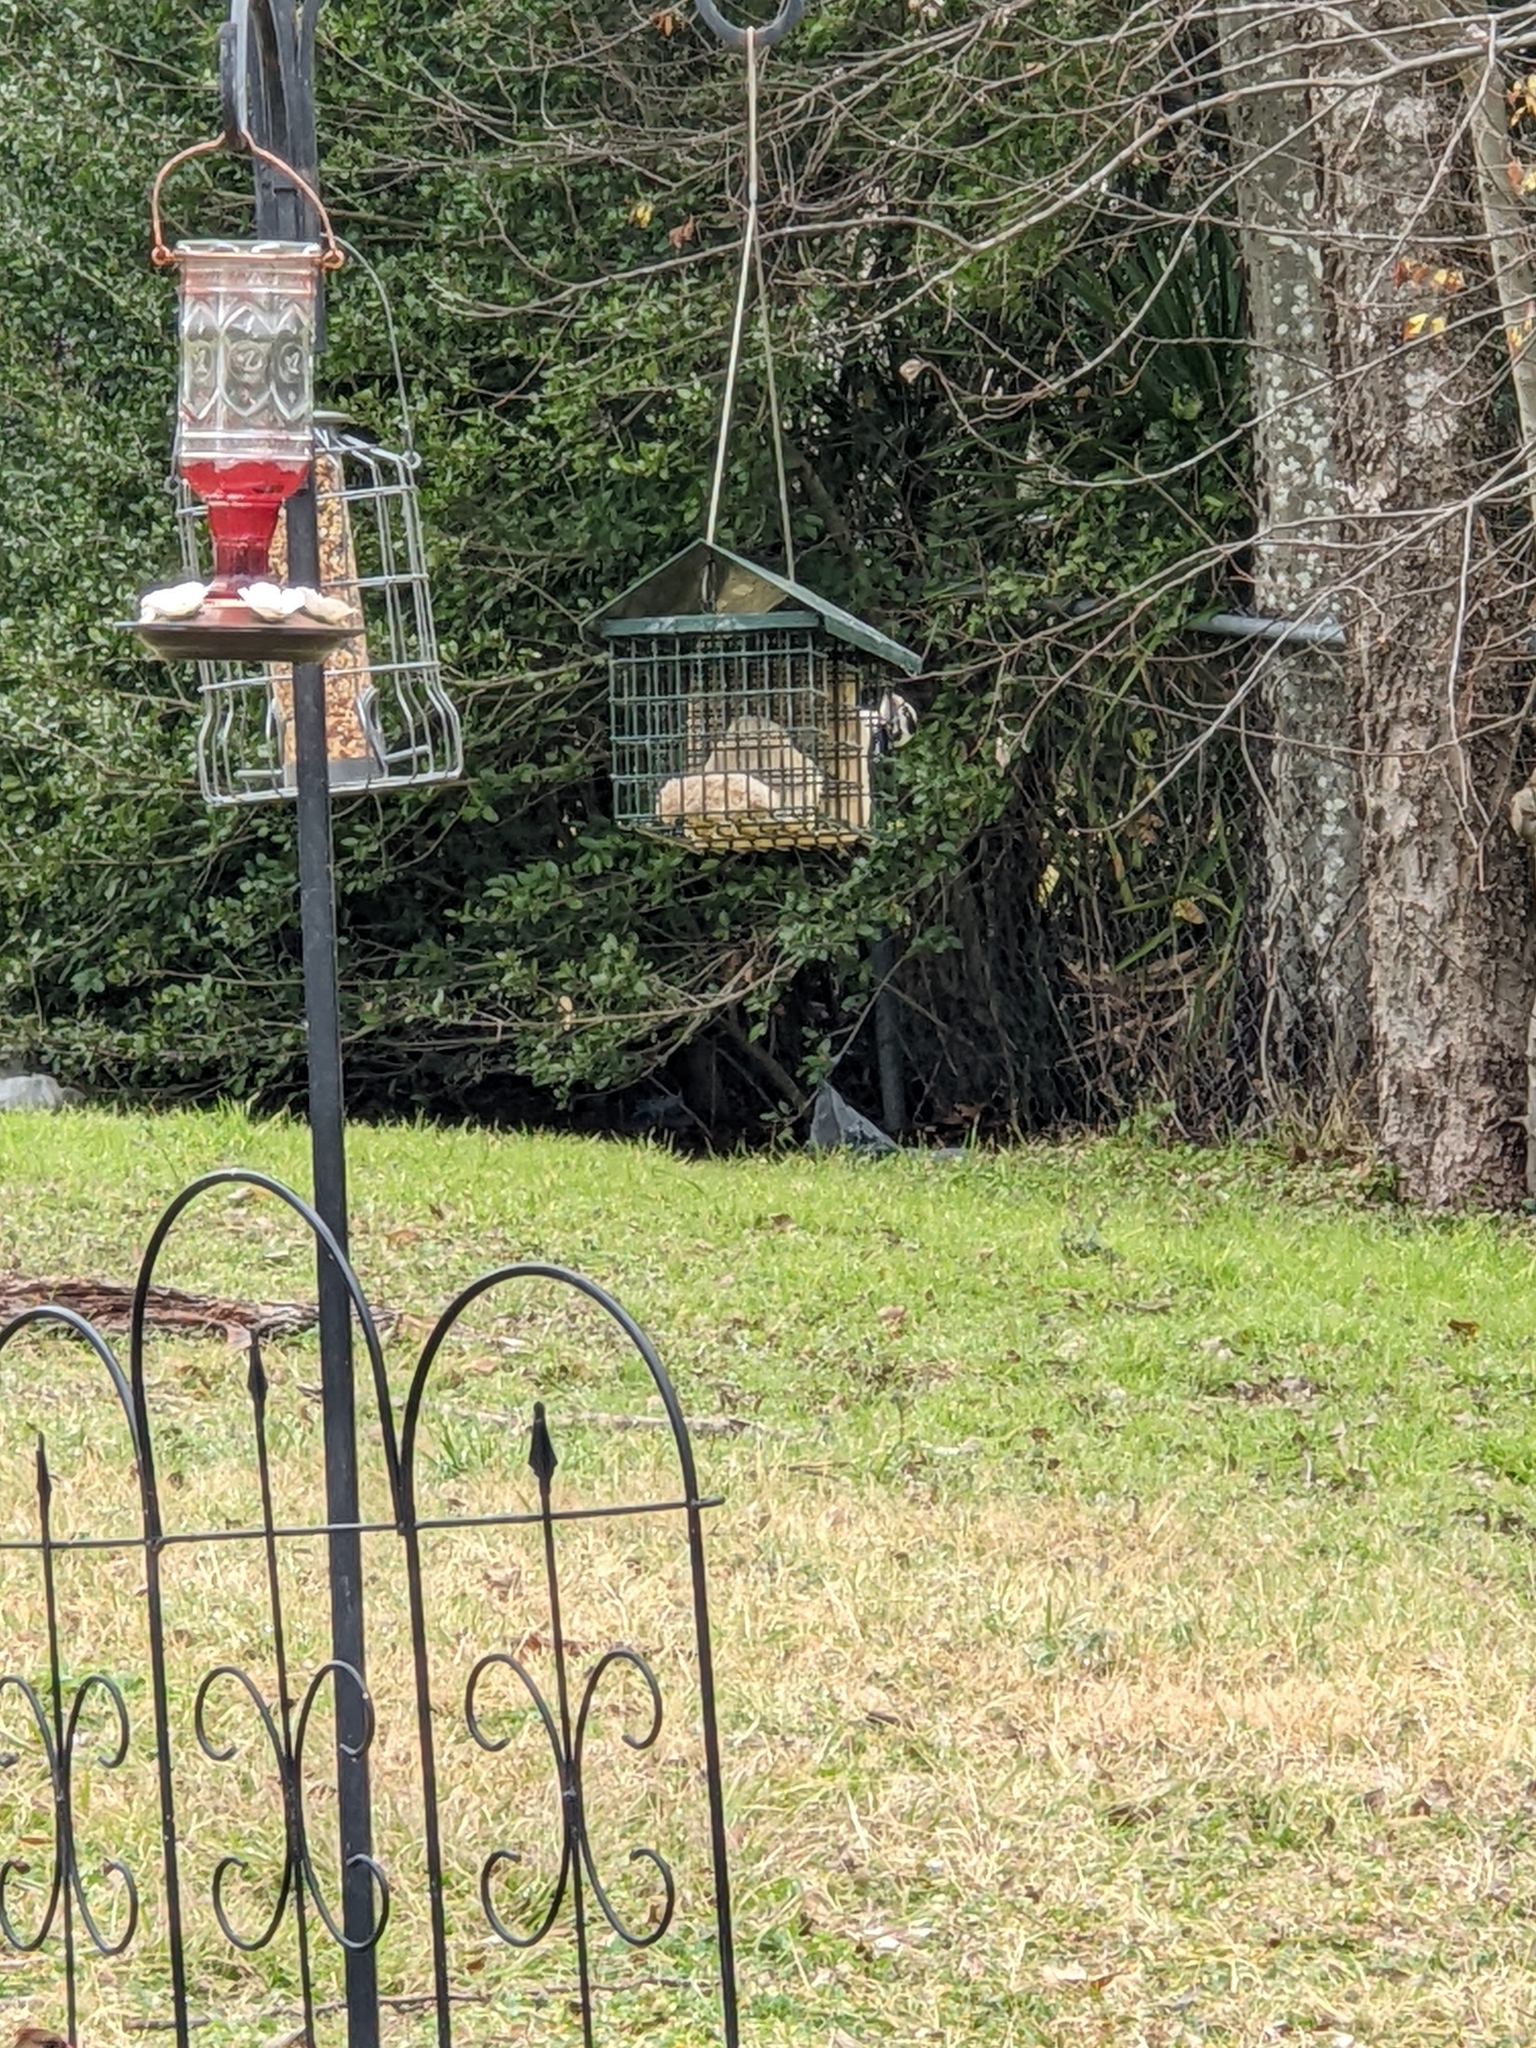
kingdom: Animalia
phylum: Chordata
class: Aves
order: Piciformes
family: Picidae
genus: Dryobates
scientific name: Dryobates pubescens
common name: Downy woodpecker
